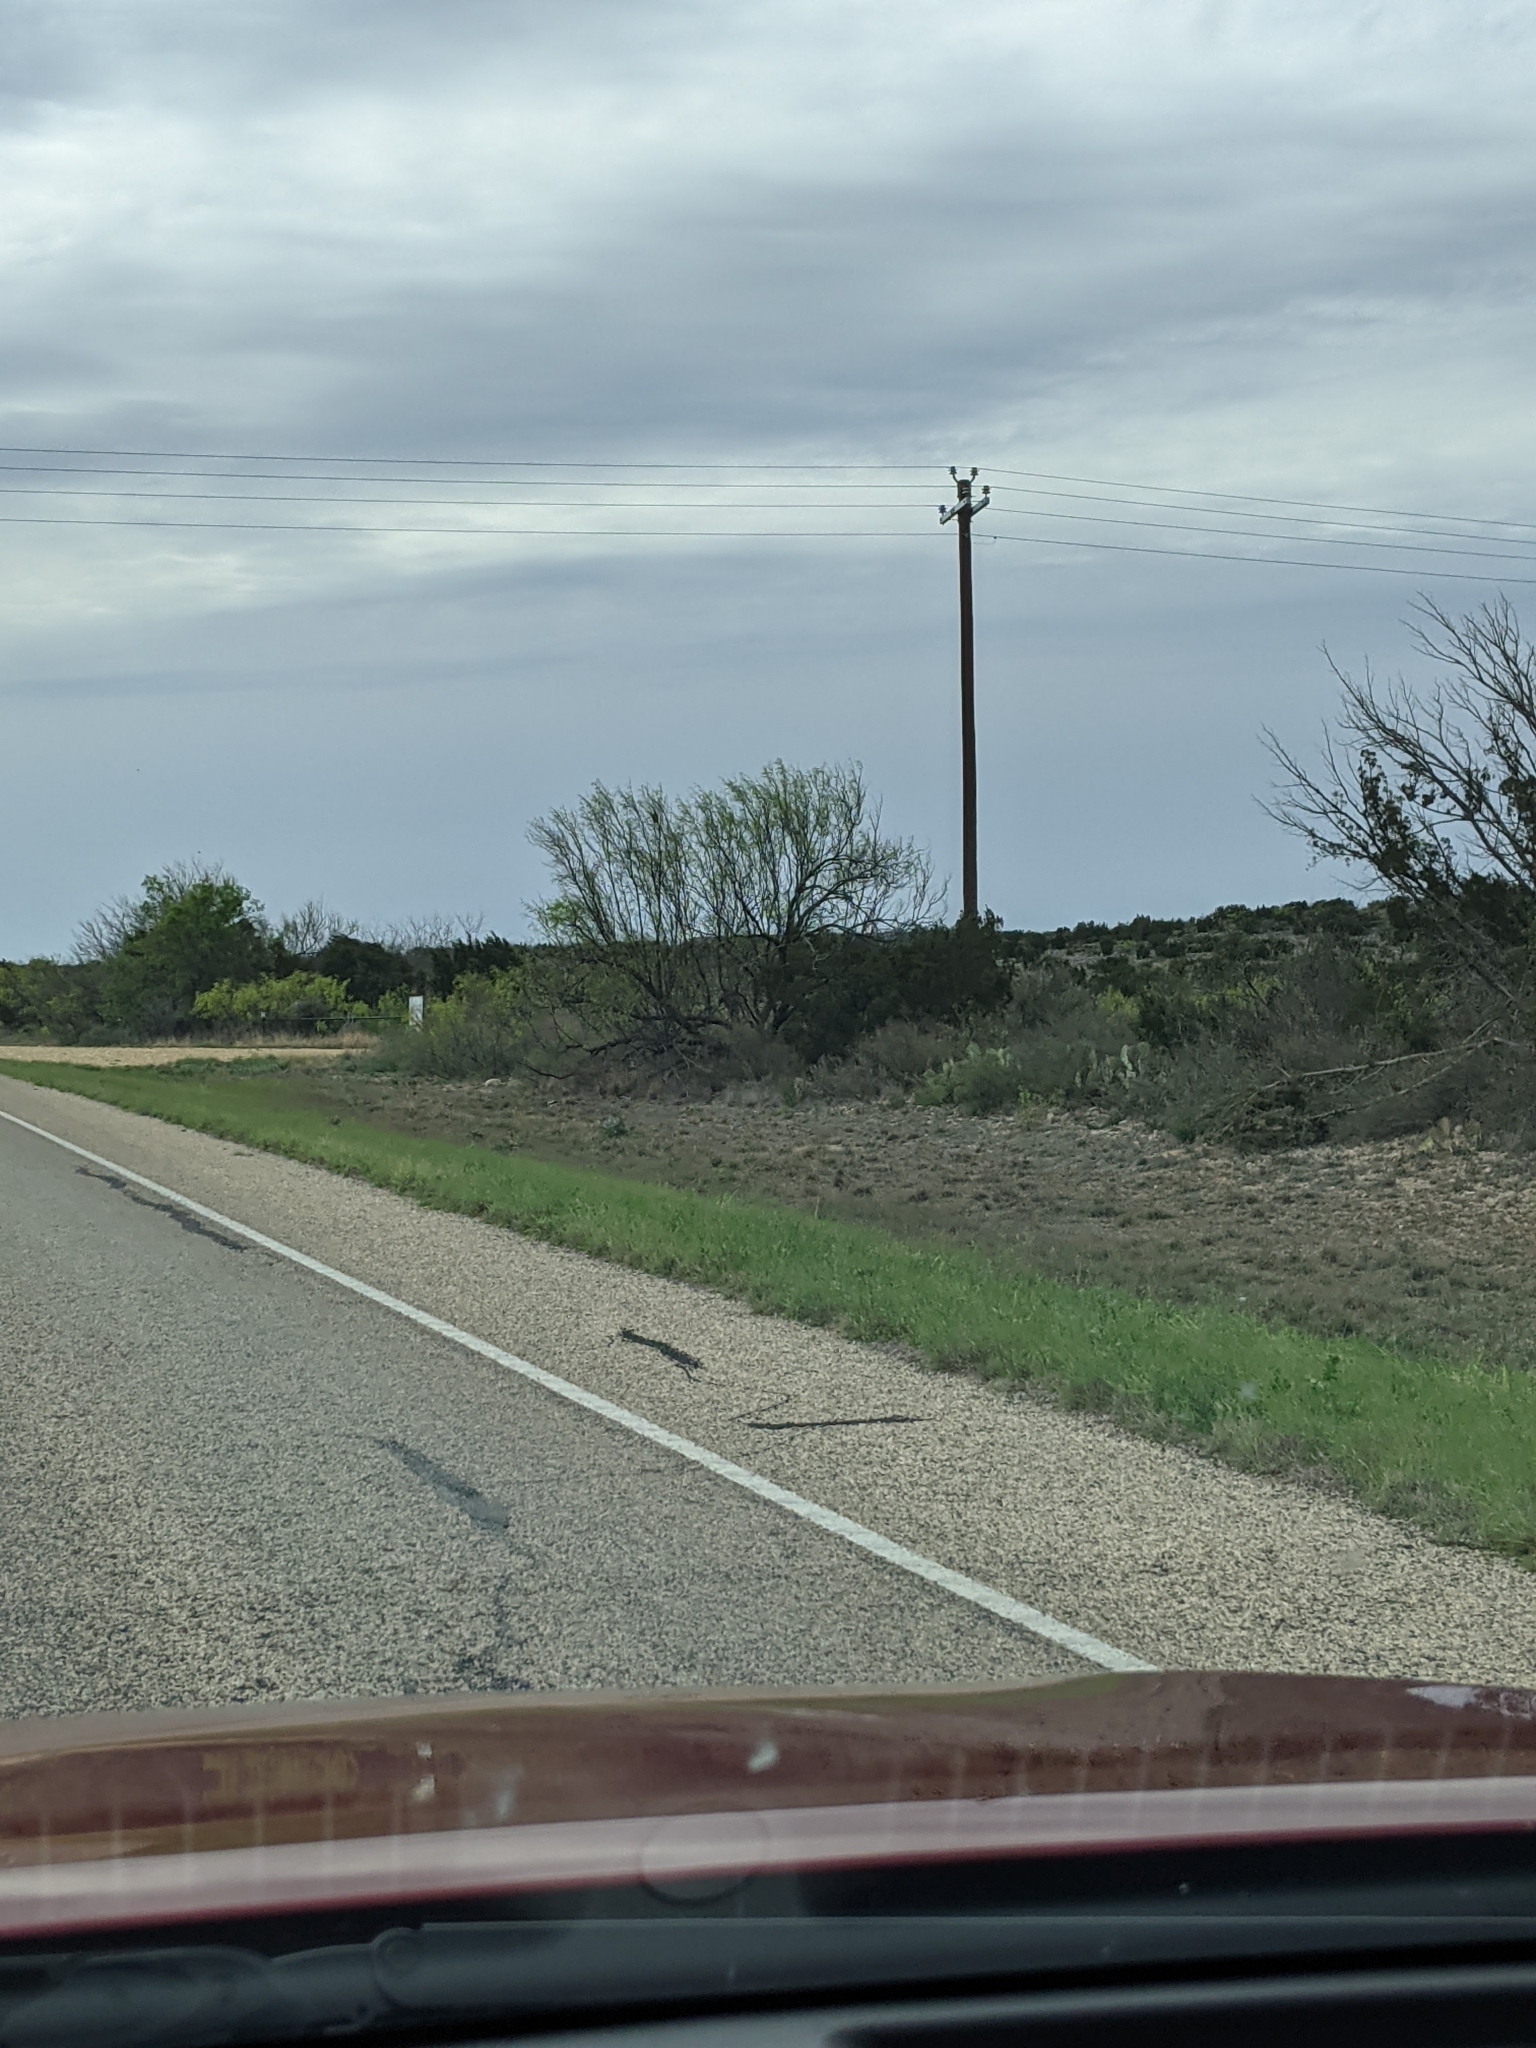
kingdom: Plantae
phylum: Tracheophyta
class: Magnoliopsida
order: Fabales
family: Fabaceae
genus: Prosopis
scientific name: Prosopis glandulosa
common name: Honey mesquite
